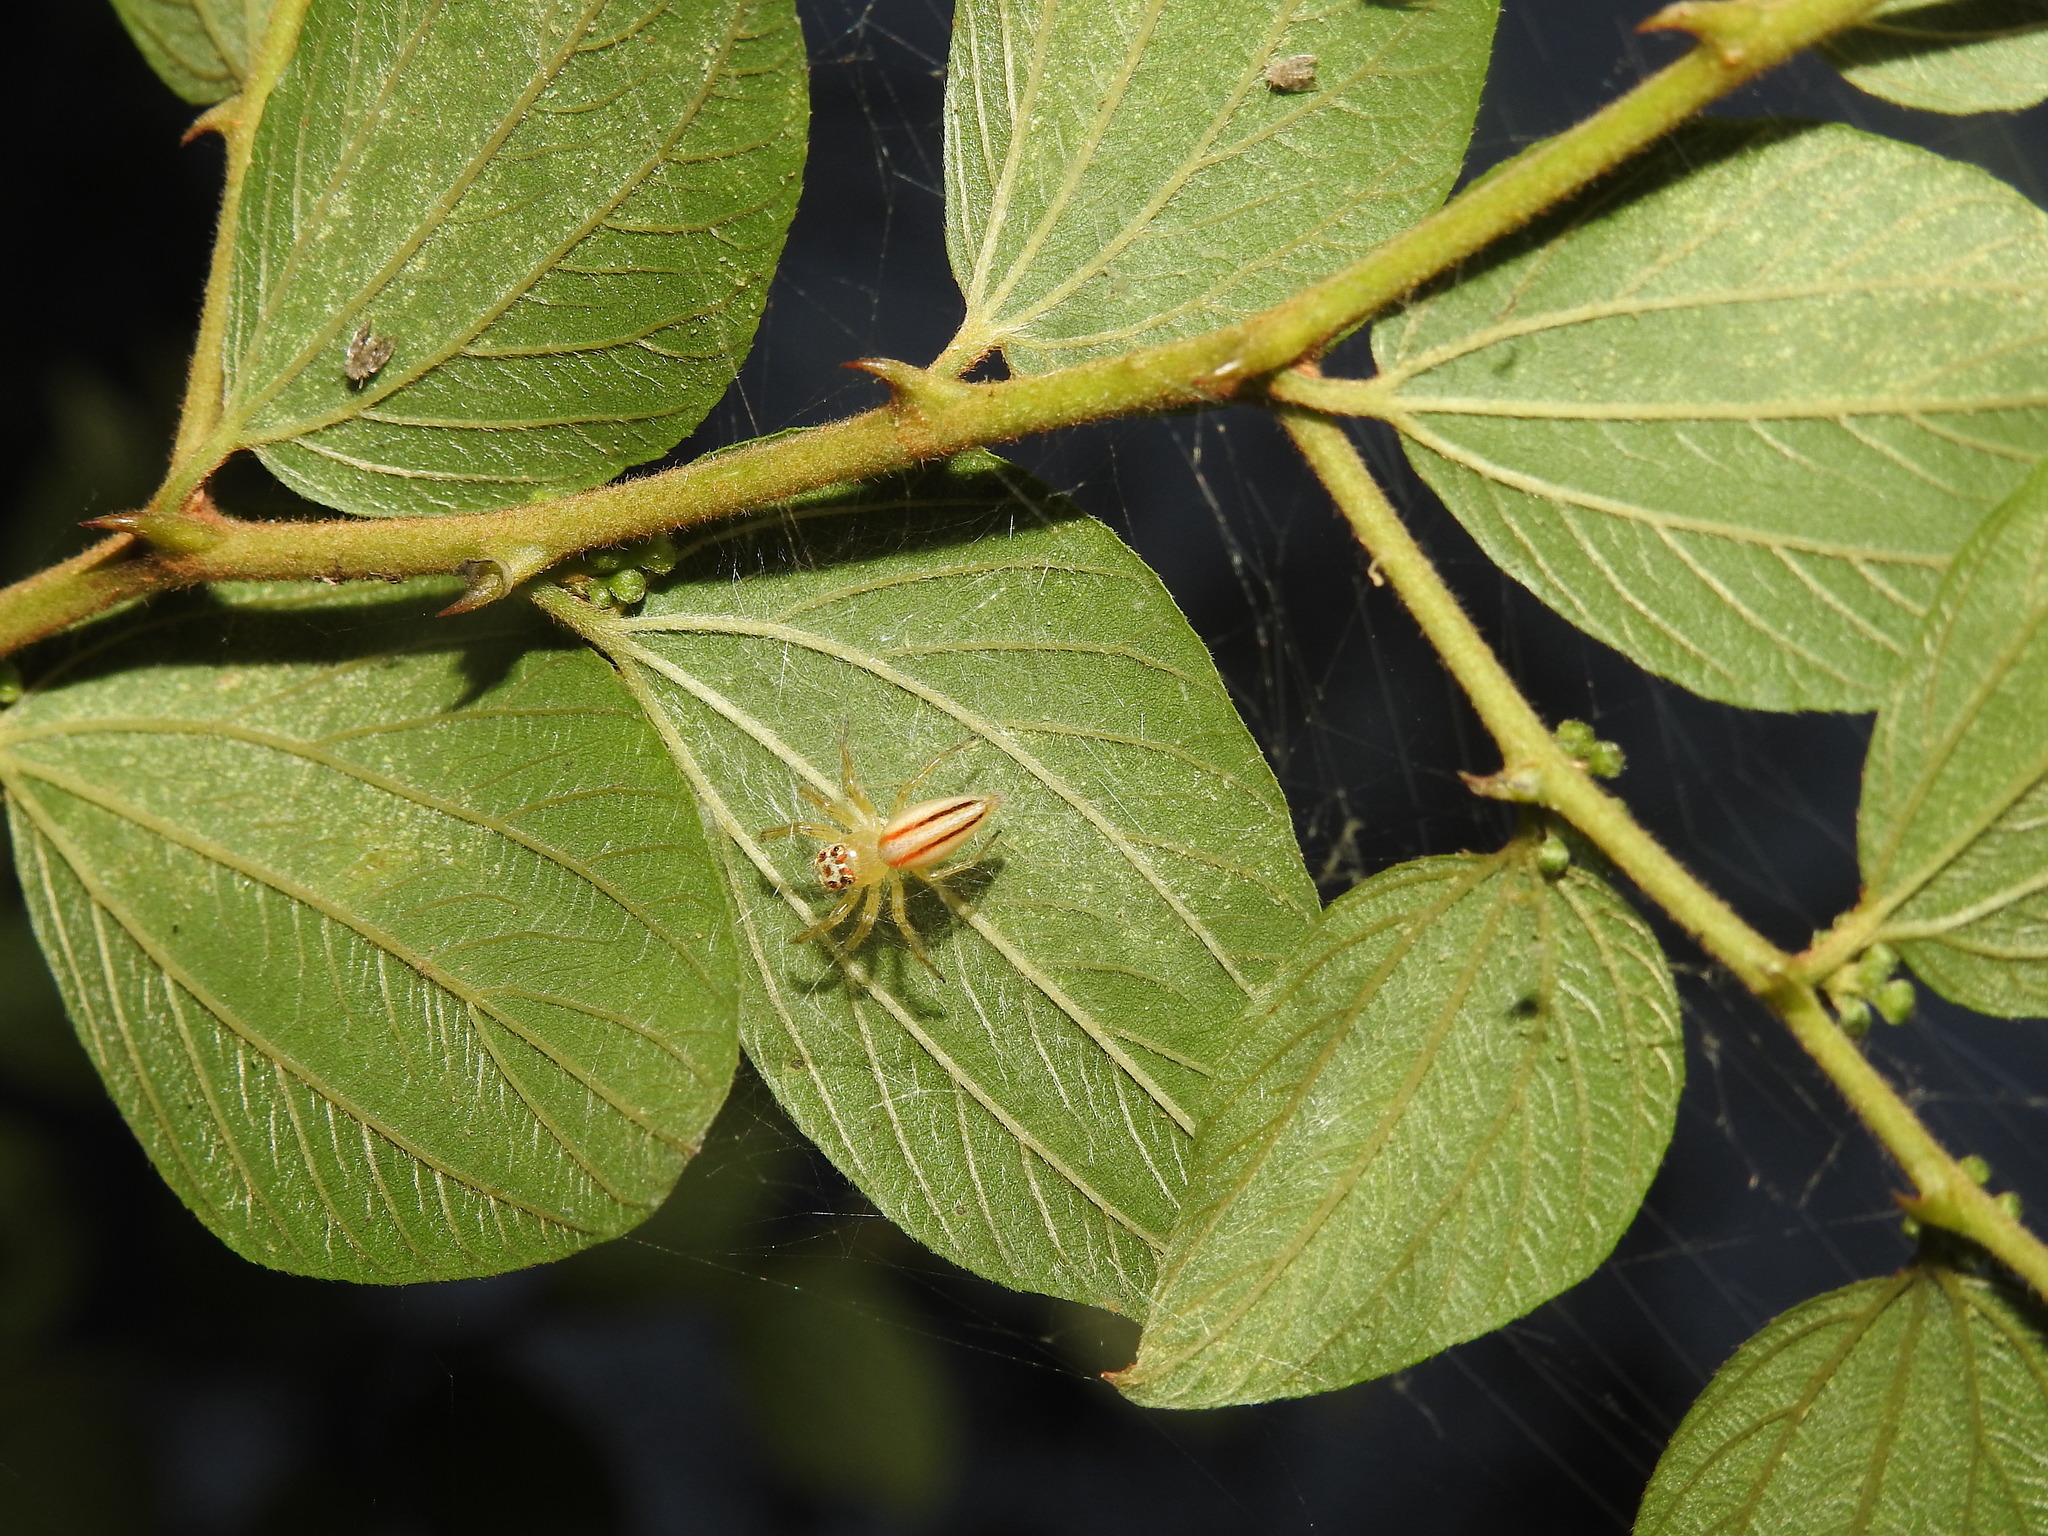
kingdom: Animalia
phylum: Arthropoda
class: Arachnida
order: Araneae
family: Salticidae
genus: Telamonia
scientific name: Telamonia dimidiata
